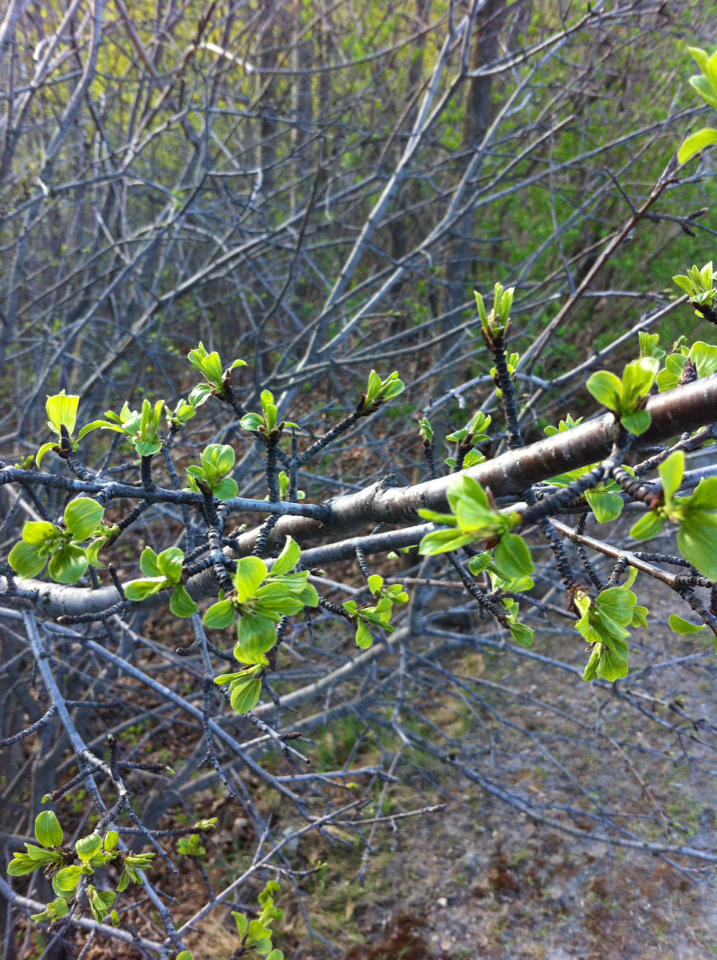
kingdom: Plantae
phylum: Tracheophyta
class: Magnoliopsida
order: Rosales
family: Rhamnaceae
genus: Rhamnus
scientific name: Rhamnus cathartica
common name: Common buckthorn
